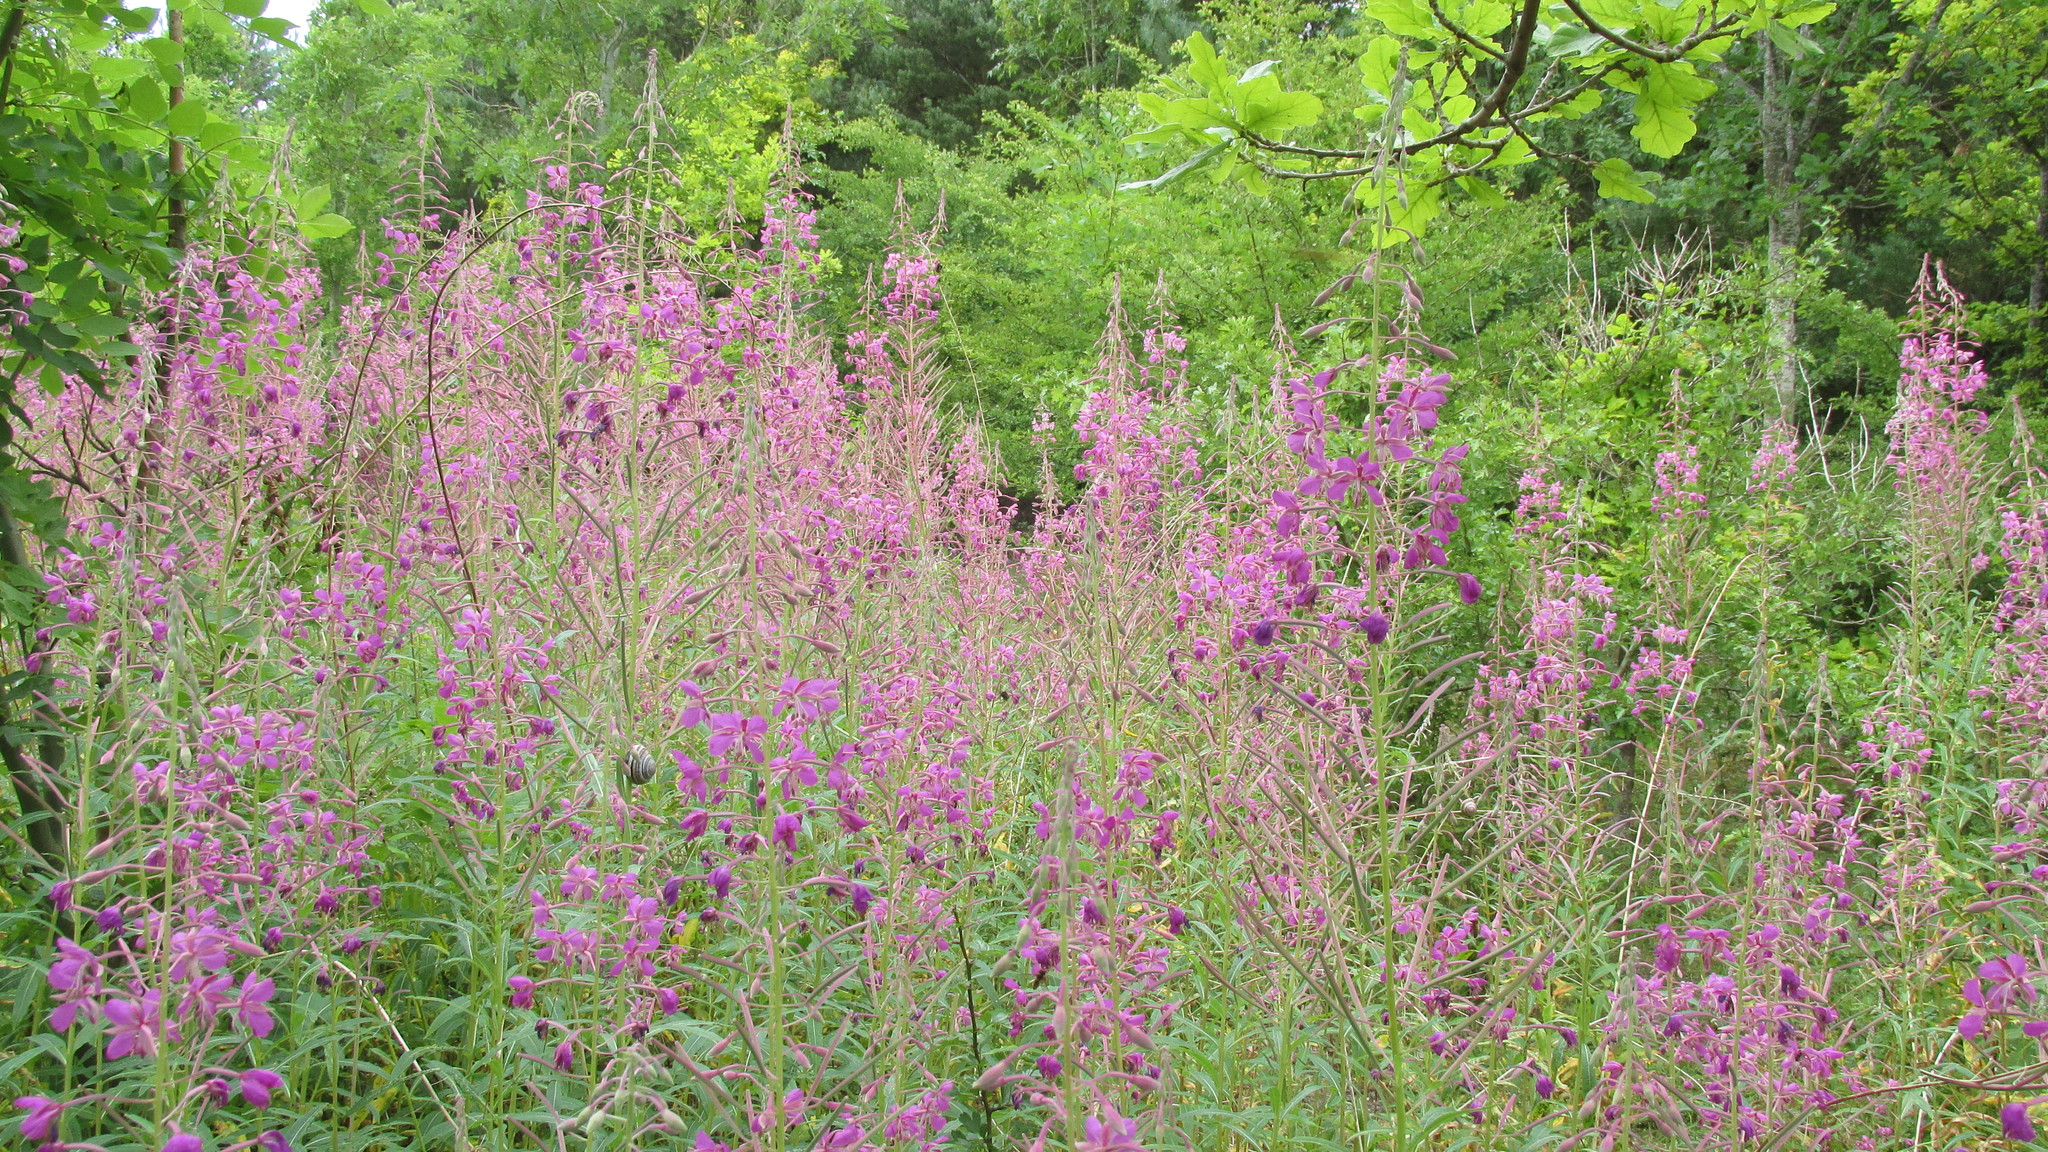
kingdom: Plantae
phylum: Tracheophyta
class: Magnoliopsida
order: Myrtales
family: Onagraceae
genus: Chamaenerion
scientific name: Chamaenerion angustifolium
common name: Fireweed
